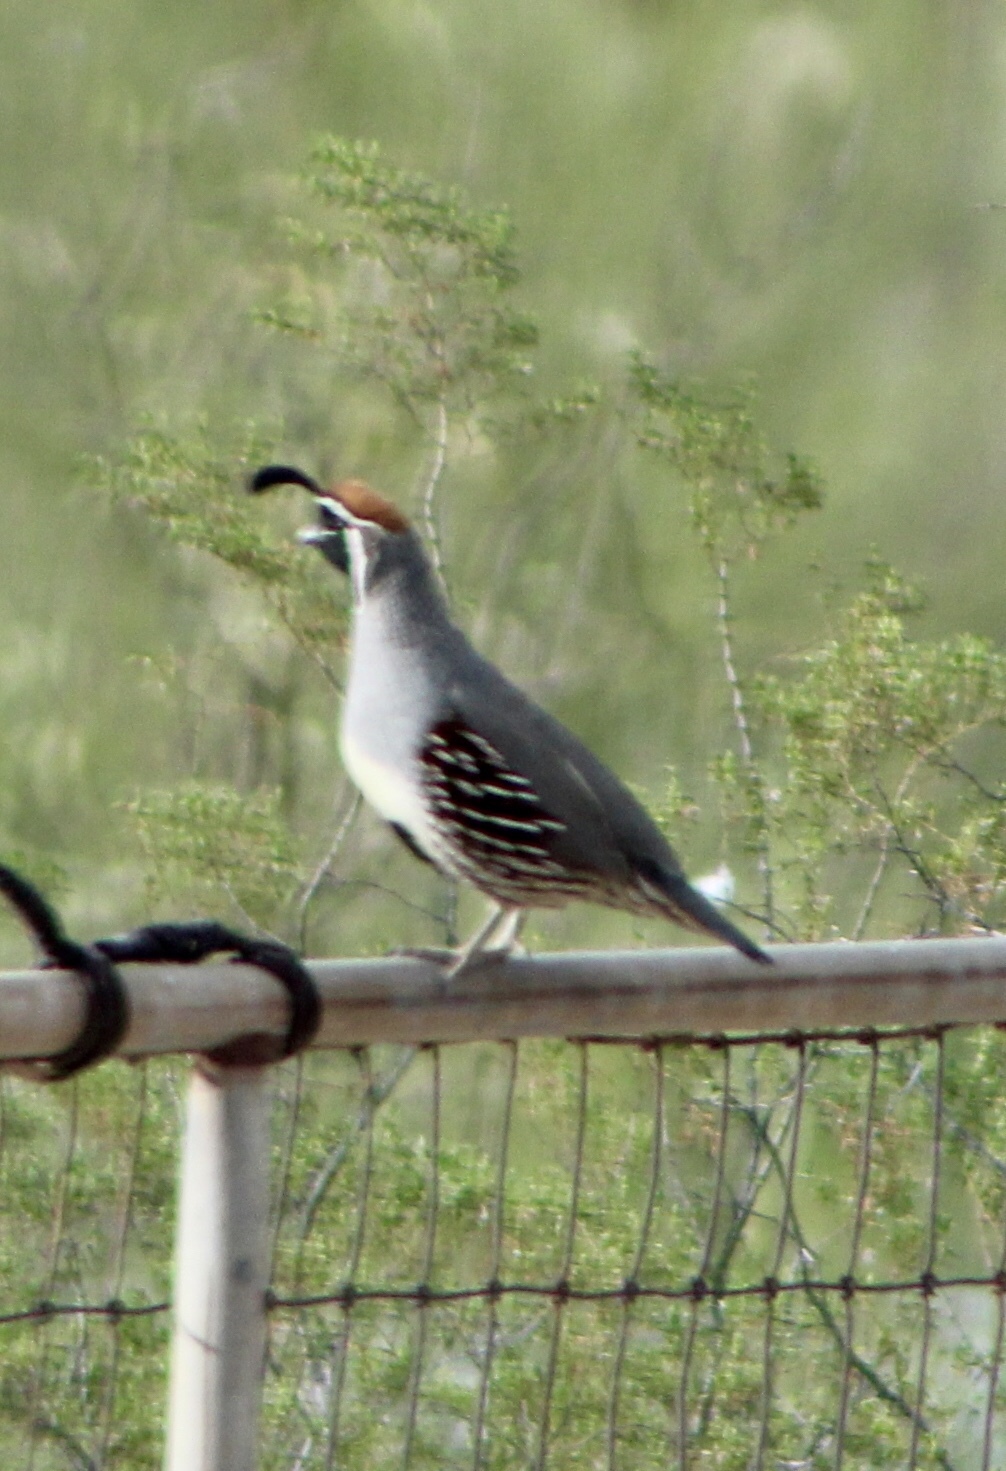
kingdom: Animalia
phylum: Chordata
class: Aves
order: Galliformes
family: Odontophoridae
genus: Callipepla
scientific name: Callipepla gambelii
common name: Gambel's quail
